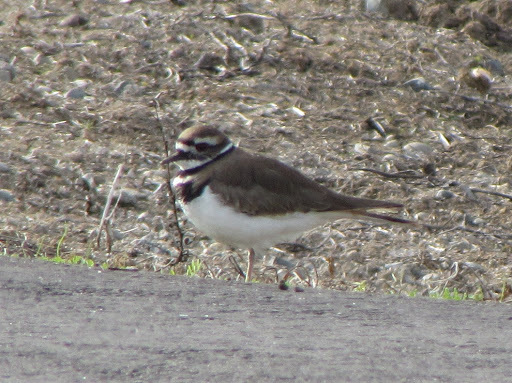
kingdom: Animalia
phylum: Chordata
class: Aves
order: Charadriiformes
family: Charadriidae
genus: Charadrius
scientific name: Charadrius vociferus
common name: Killdeer
